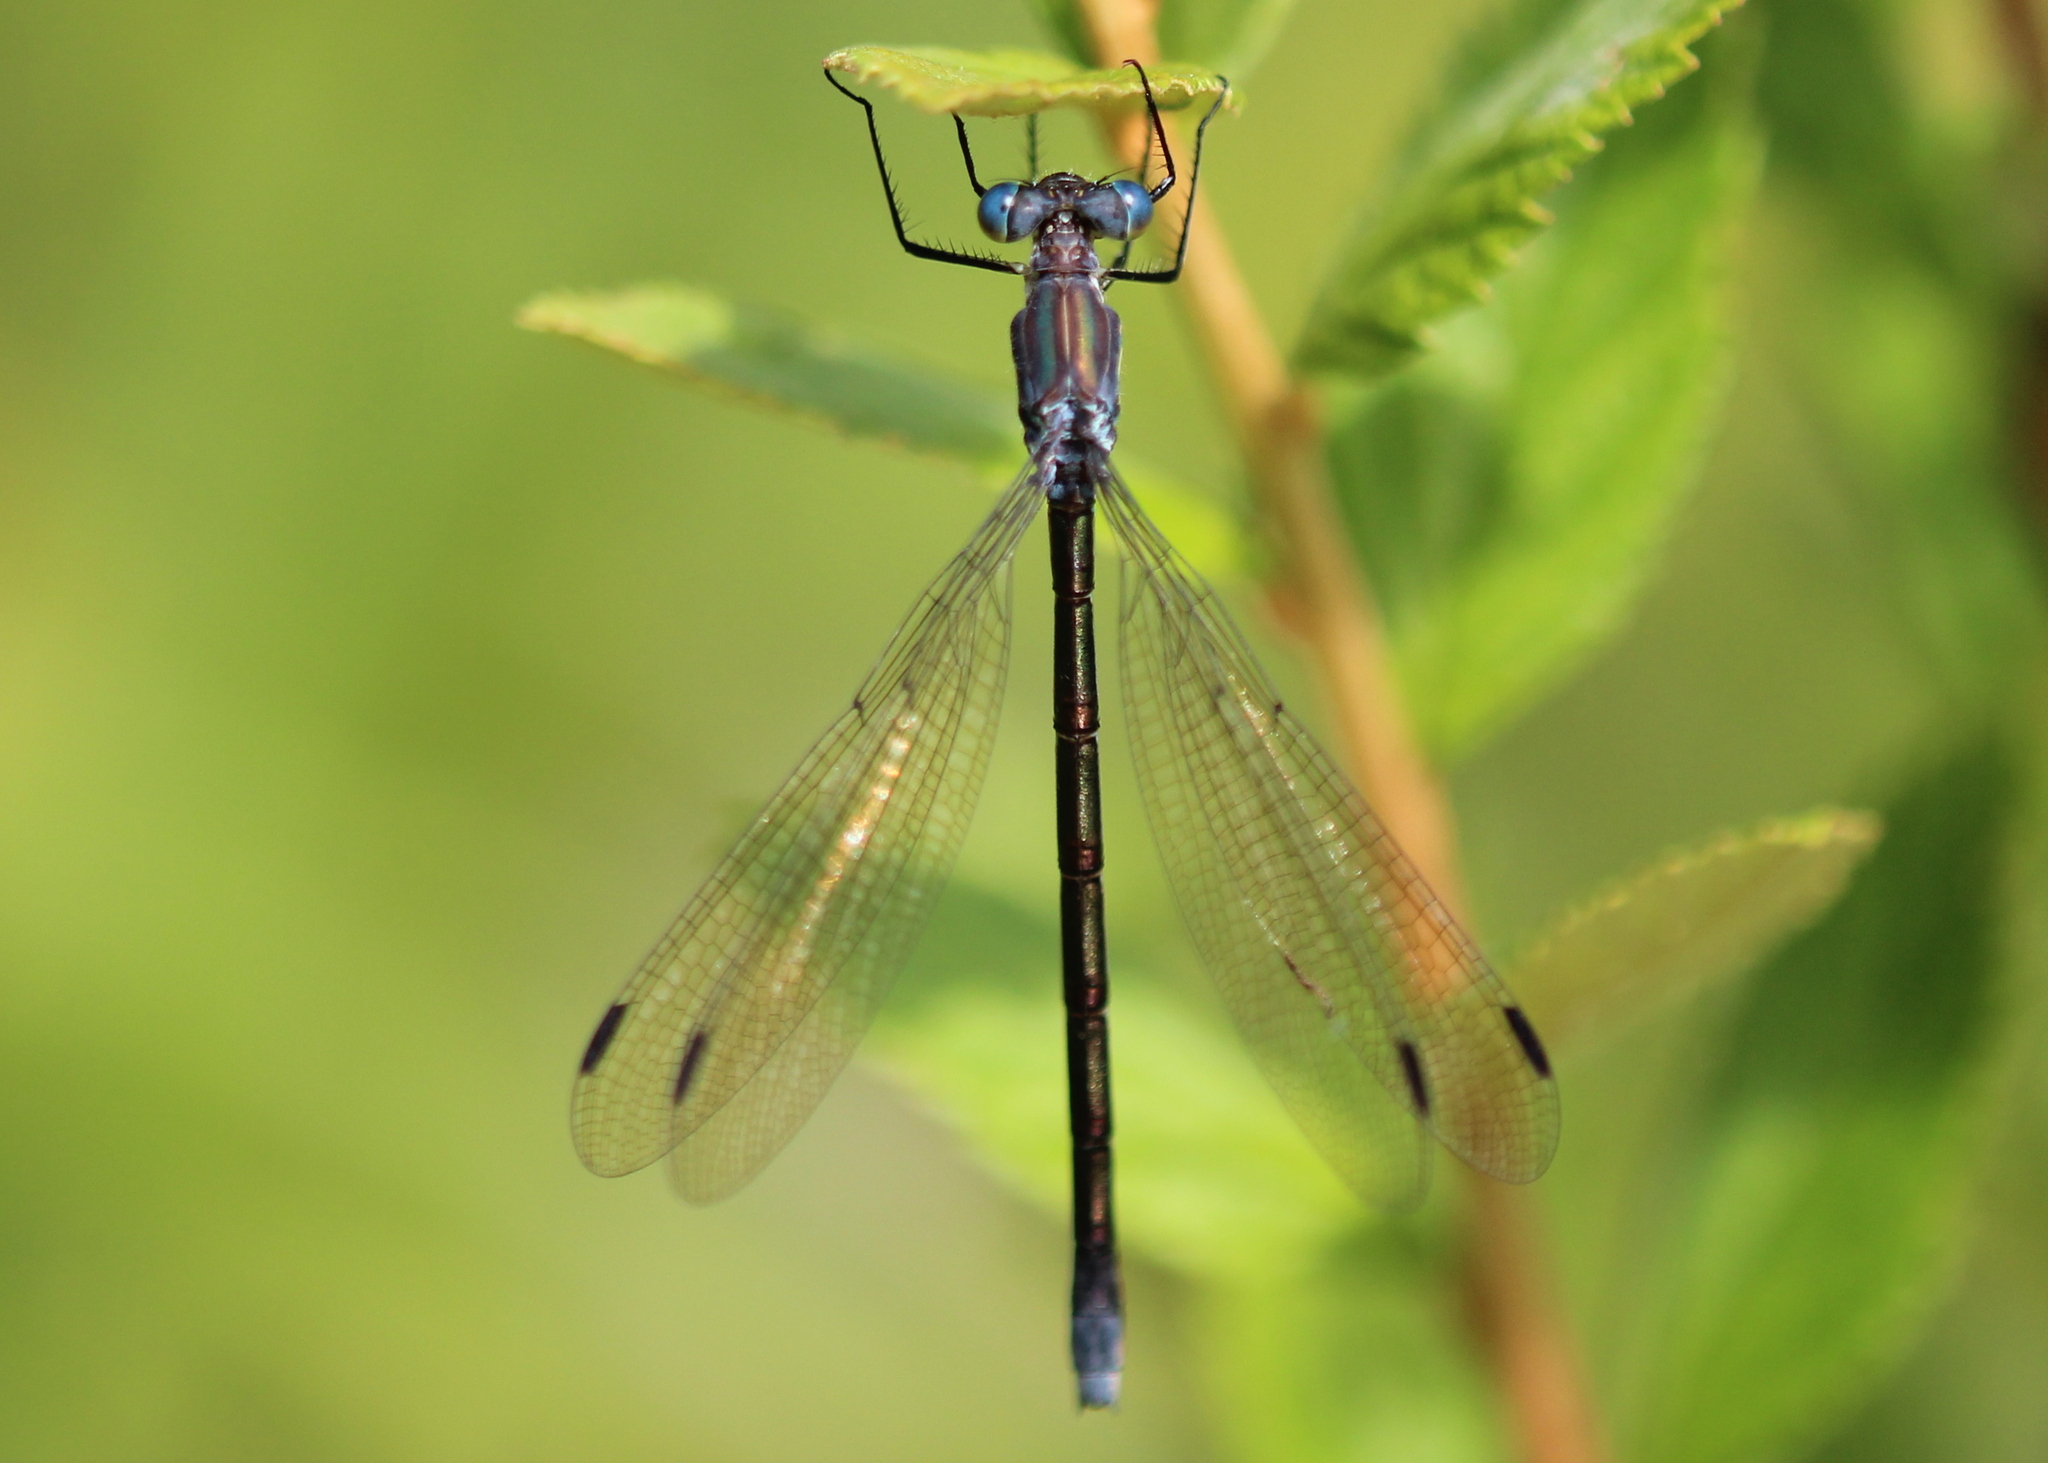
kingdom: Animalia
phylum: Arthropoda
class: Insecta
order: Odonata
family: Lestidae
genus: Lestes
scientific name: Lestes eurinus
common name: Amber-winged spreadwing
